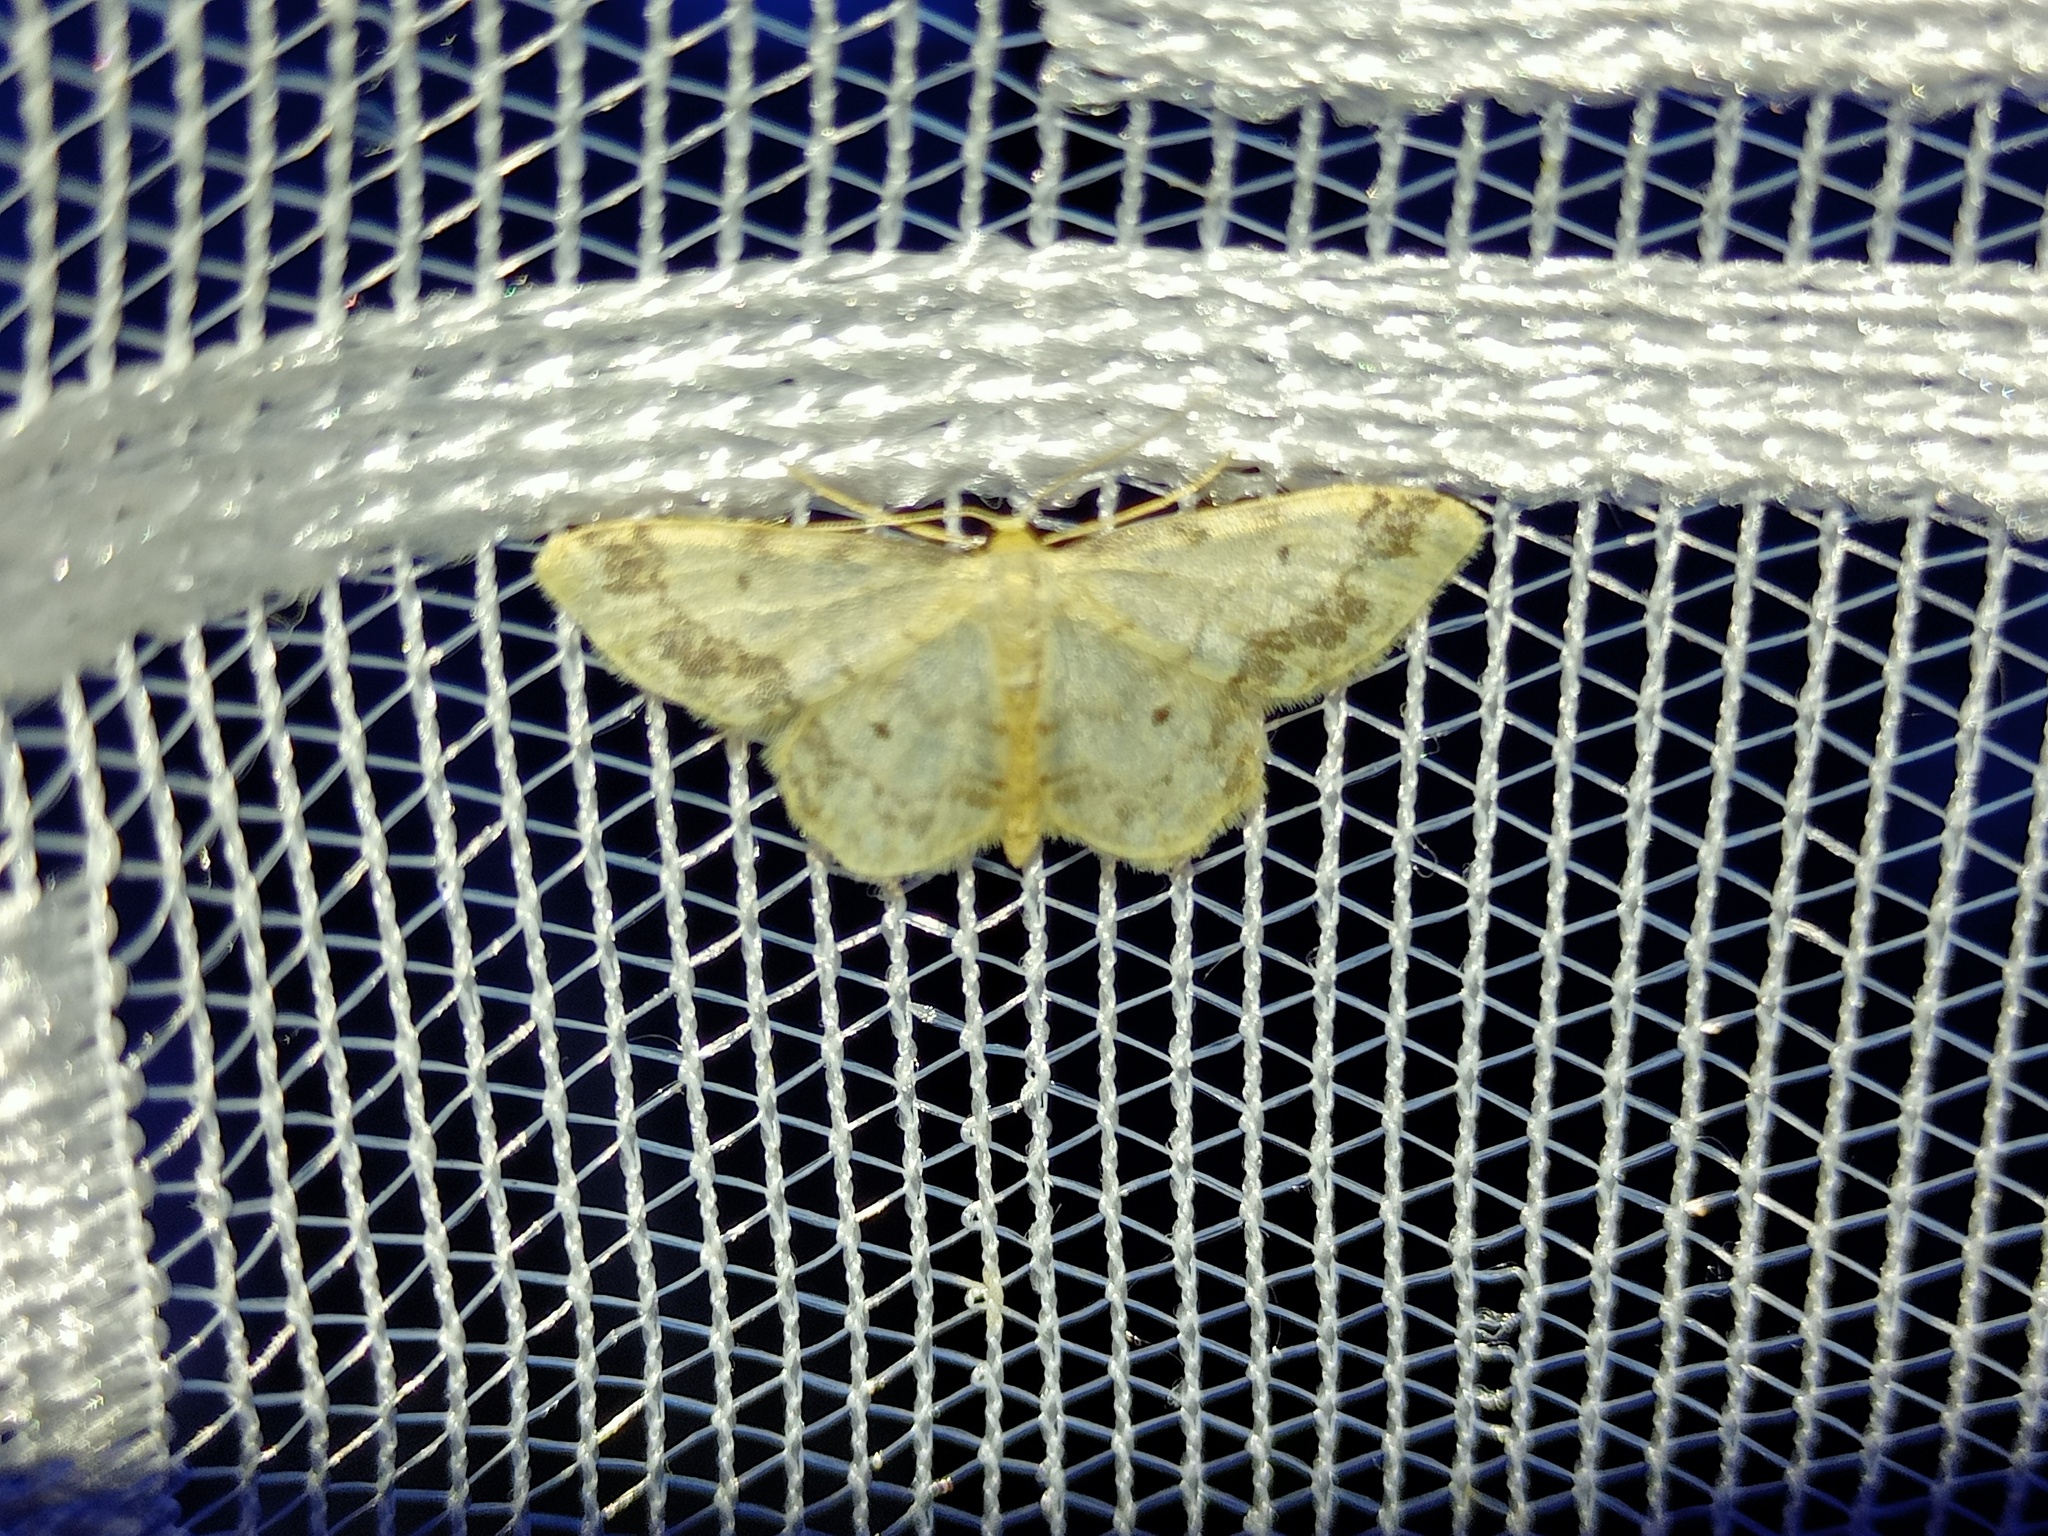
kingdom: Animalia
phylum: Arthropoda
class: Insecta
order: Lepidoptera
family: Geometridae
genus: Idaea
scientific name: Idaea trigeminata
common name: Treble brown spot
